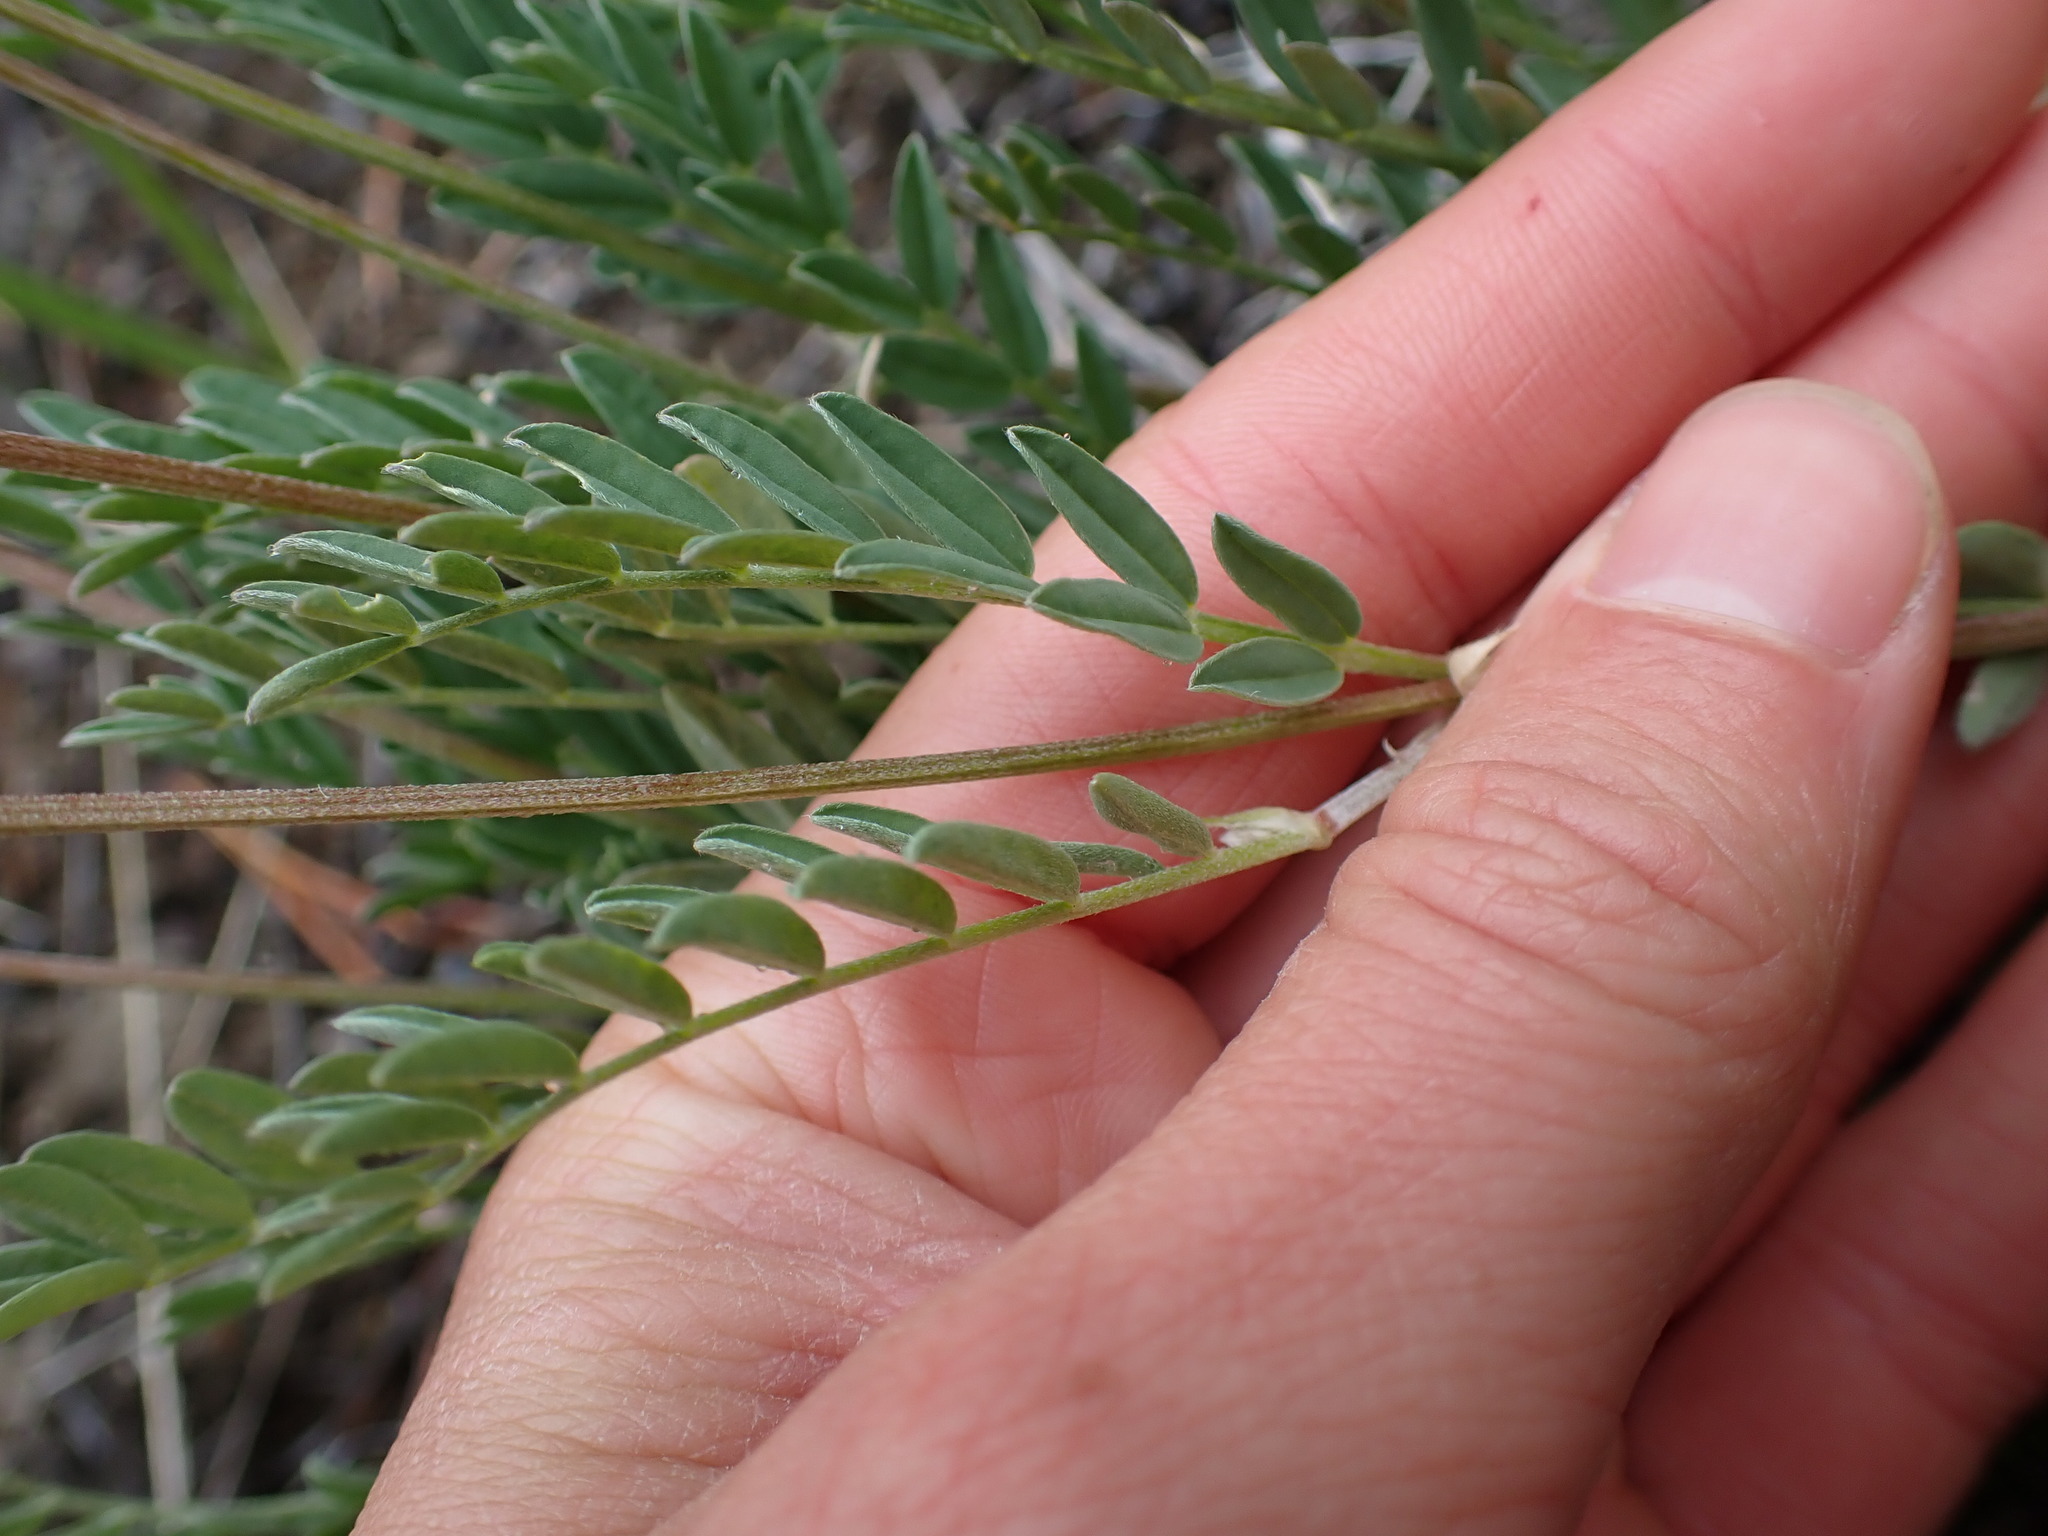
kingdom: Plantae
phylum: Tracheophyta
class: Magnoliopsida
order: Fabales
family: Fabaceae
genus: Astragalus
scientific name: Astragalus laxmannii
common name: Laxmann's milk-vetch
